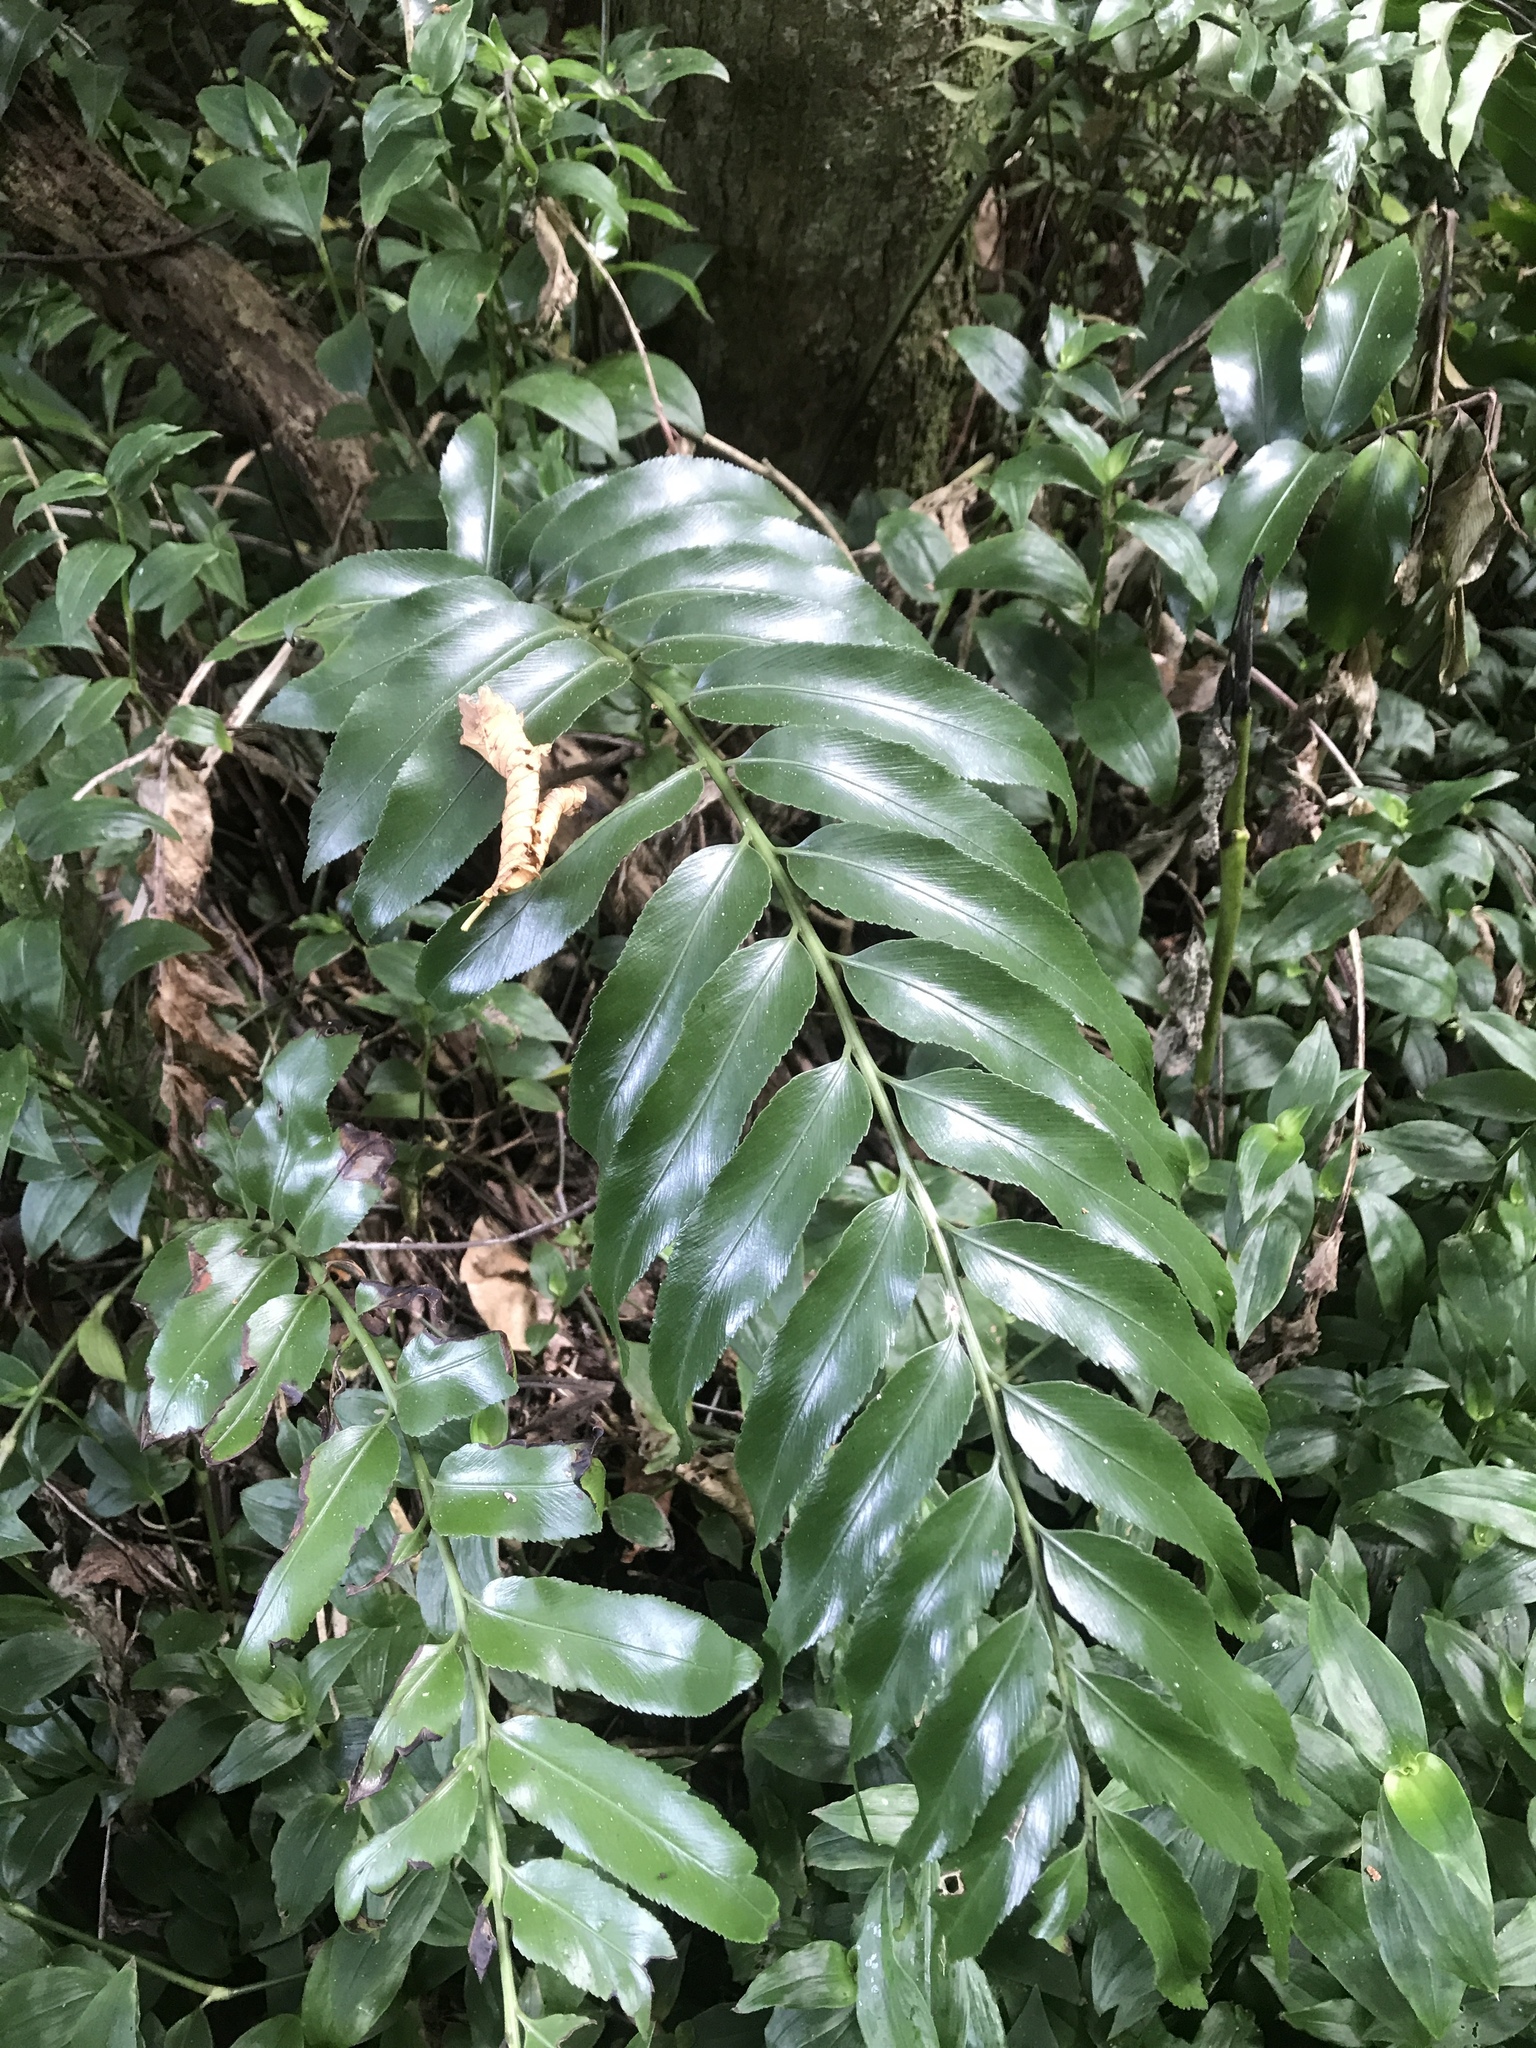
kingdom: Plantae
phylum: Tracheophyta
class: Polypodiopsida
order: Polypodiales
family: Aspleniaceae
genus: Asplenium
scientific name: Asplenium oblongifolium
